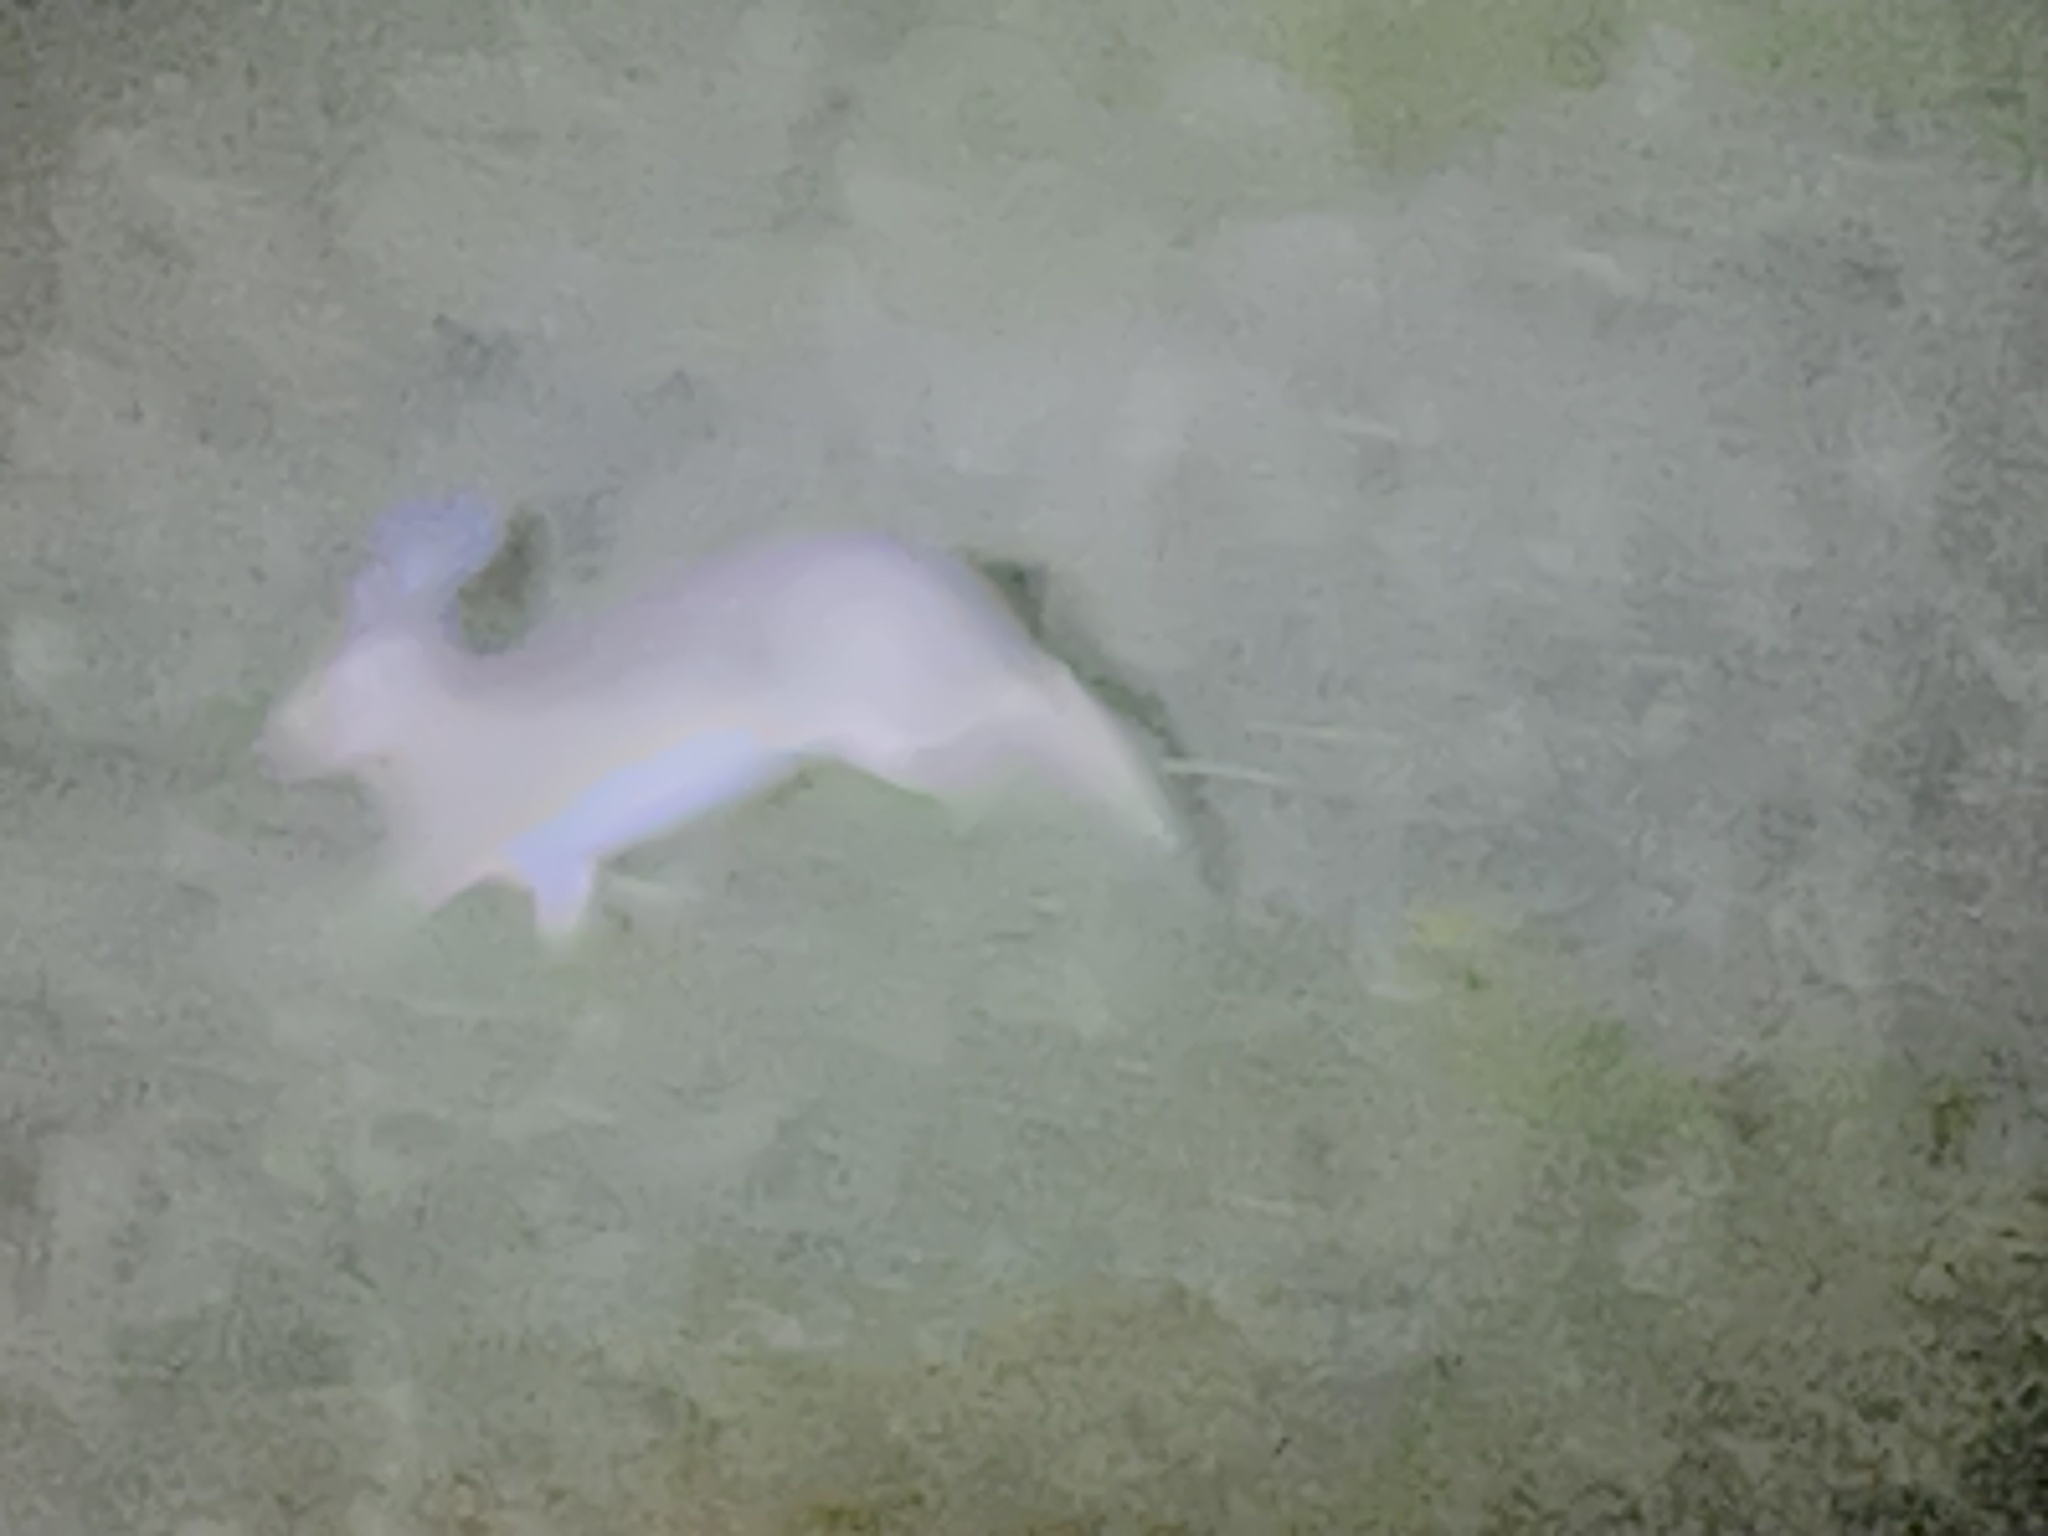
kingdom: Animalia
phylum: Chordata
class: Mammalia
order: Lagomorpha
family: Leporidae
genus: Lepus
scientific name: Lepus europaeus
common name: European hare
